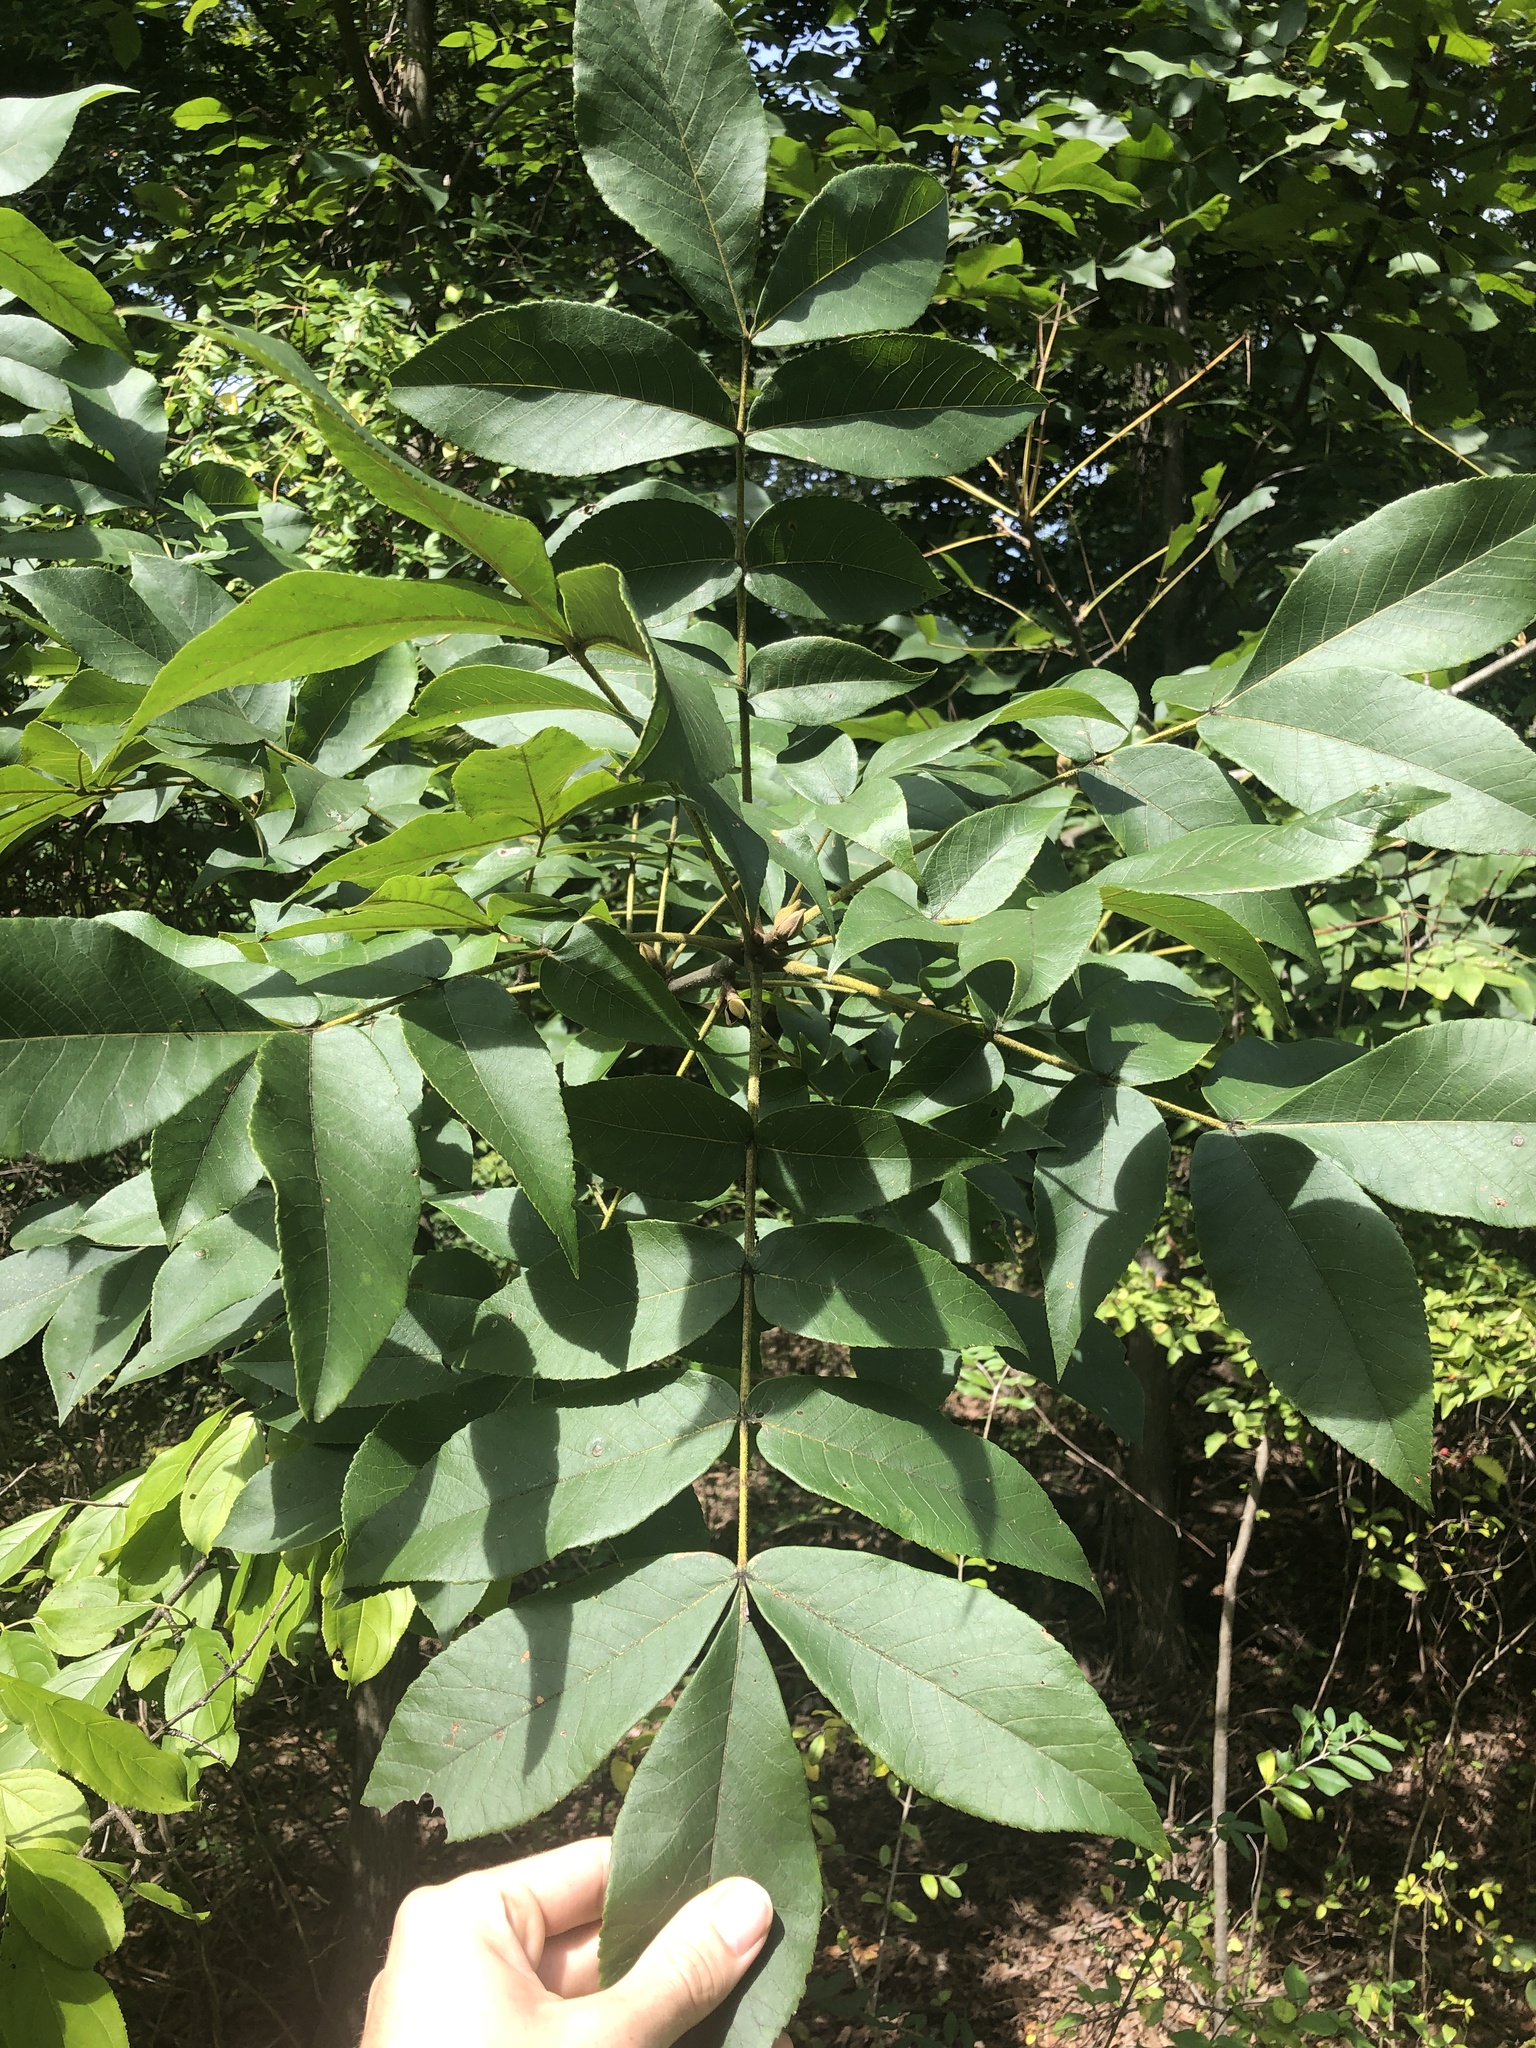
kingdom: Plantae
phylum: Tracheophyta
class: Magnoliopsida
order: Fagales
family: Juglandaceae
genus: Carya
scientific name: Carya alba
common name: Mockernut hickory
